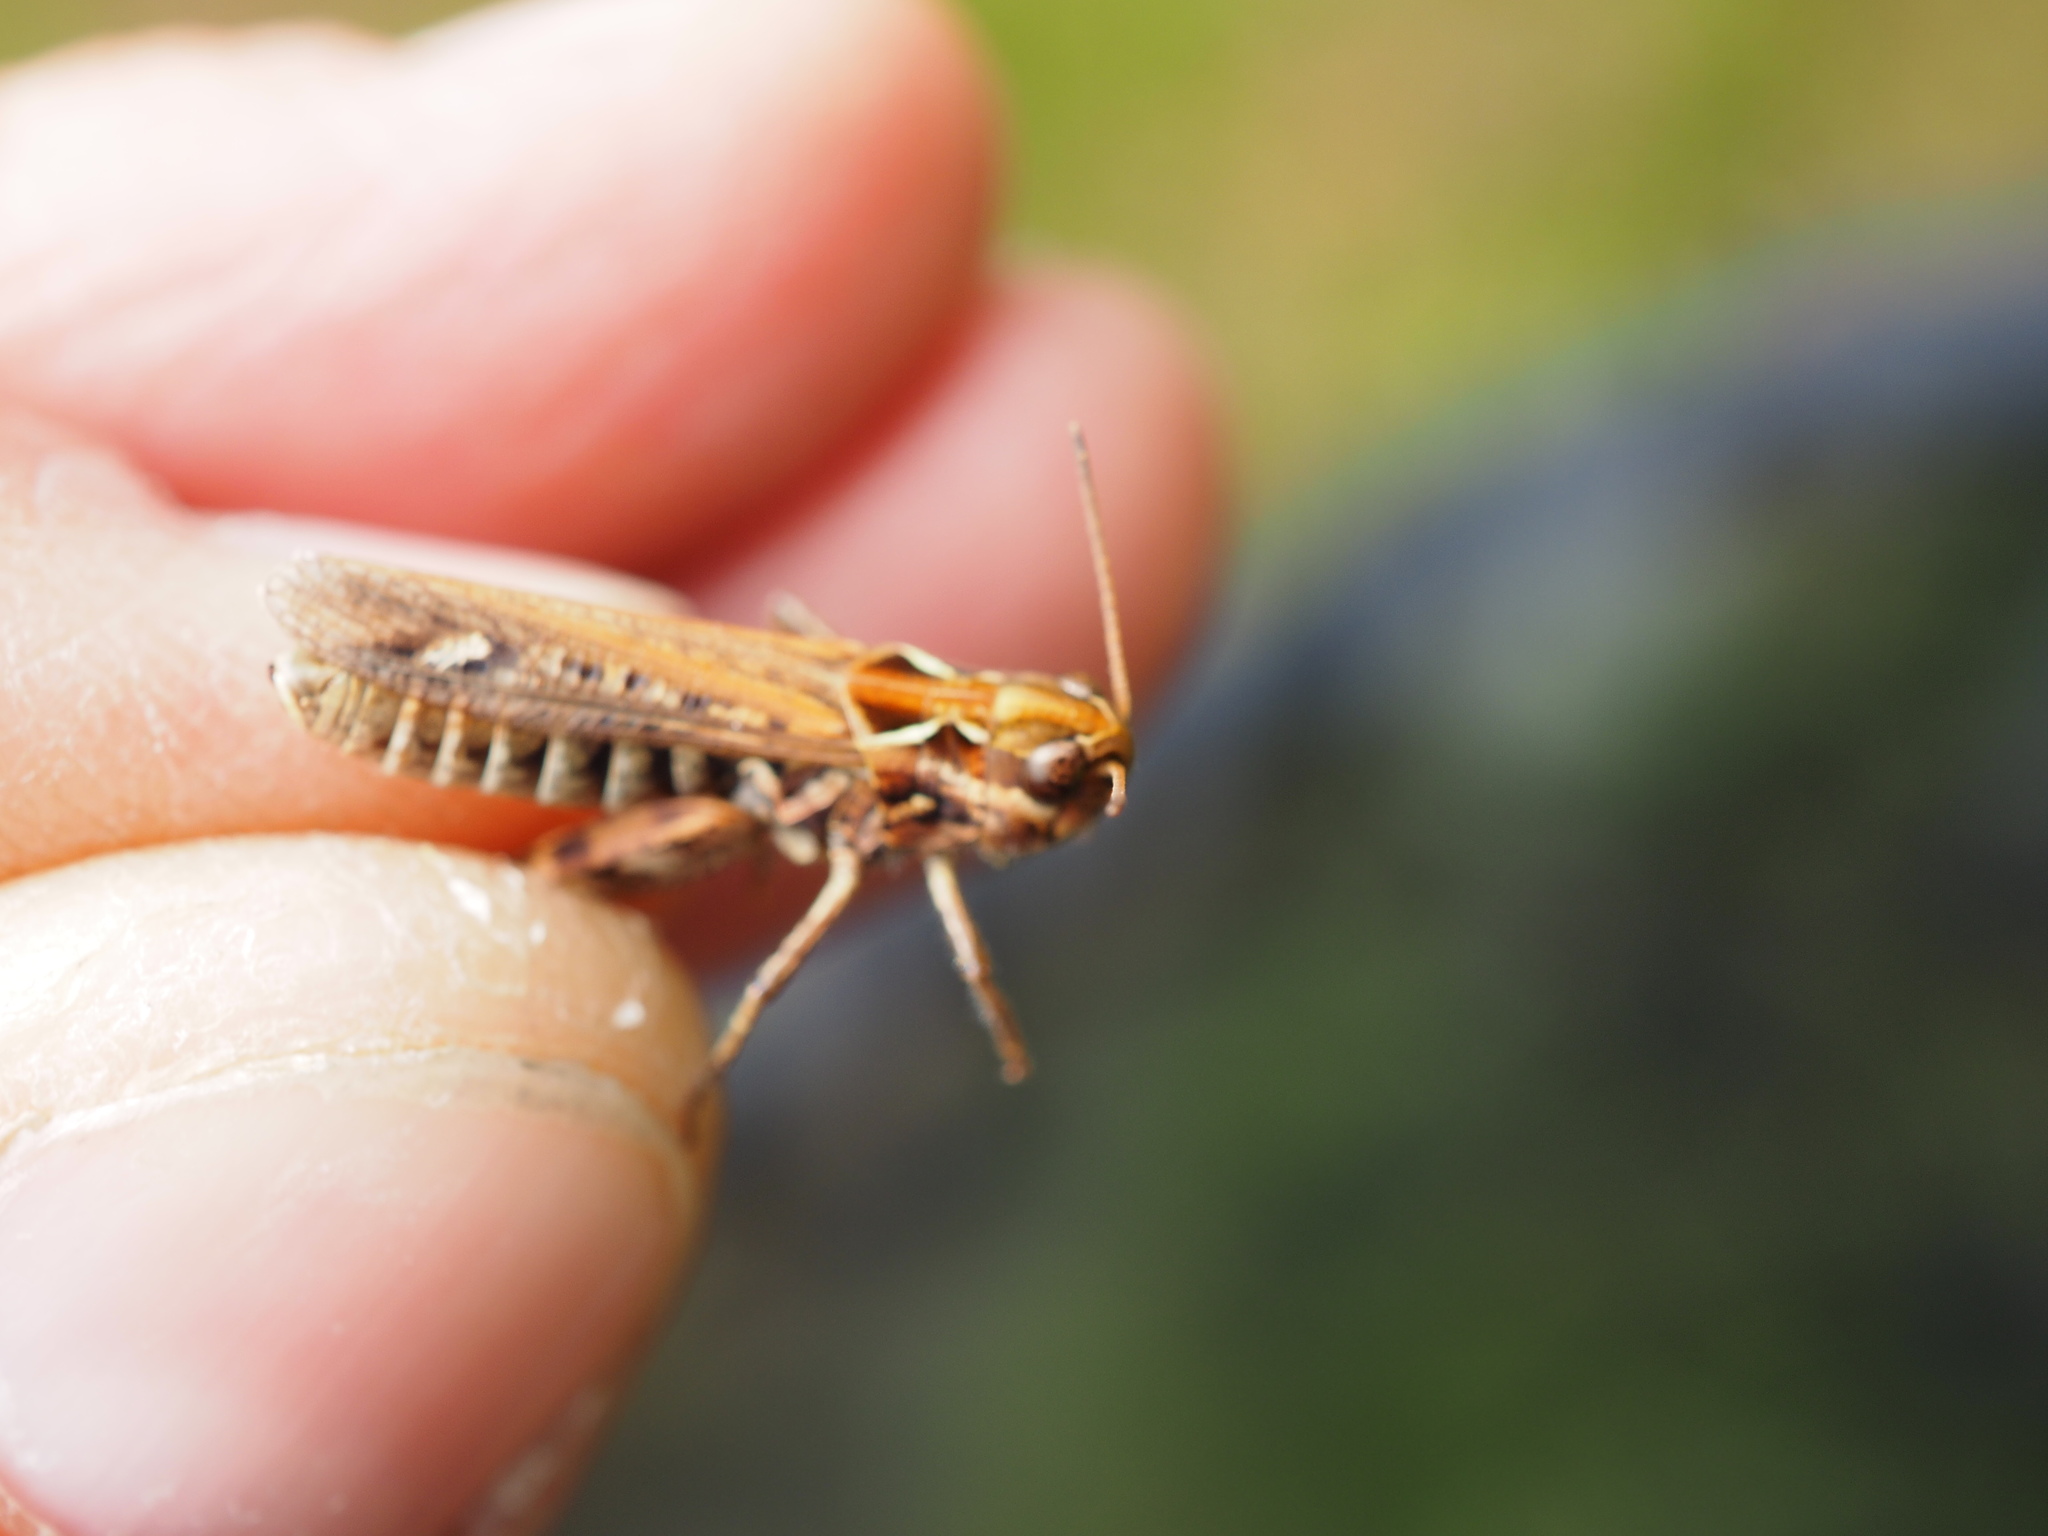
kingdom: Animalia
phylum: Arthropoda
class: Insecta
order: Orthoptera
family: Acrididae
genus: Myrmeleotettix
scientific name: Myrmeleotettix maculatus
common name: Mottled grasshopper
